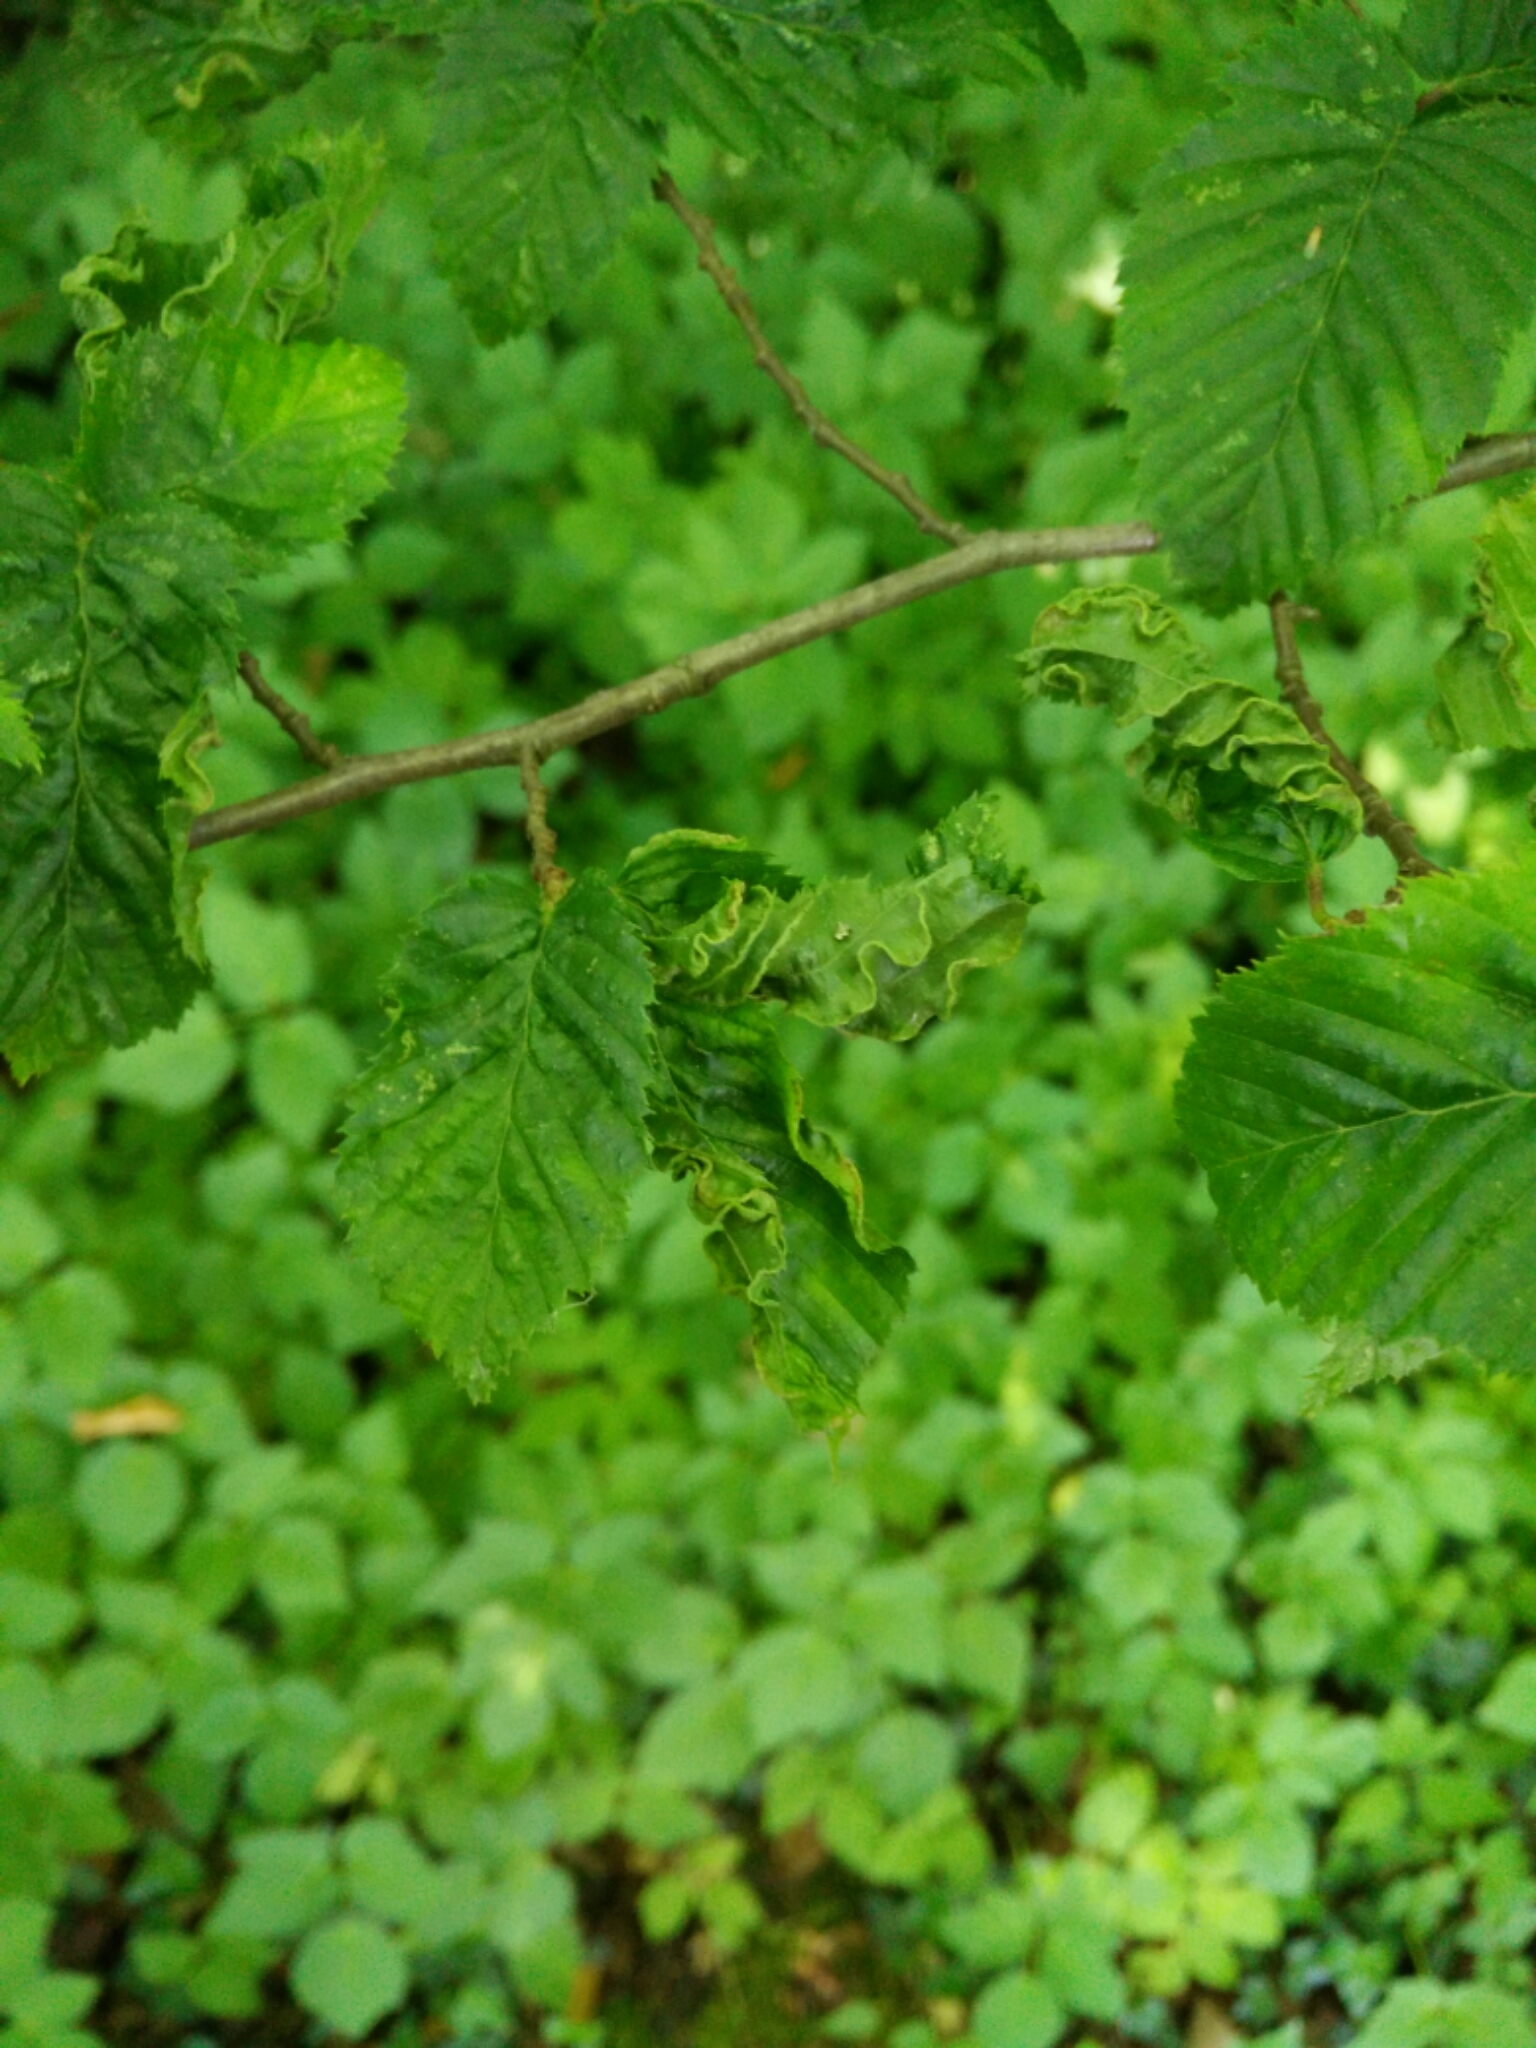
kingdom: Animalia
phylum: Arthropoda
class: Arachnida
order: Trombidiformes
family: Eriophyidae
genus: Aculops
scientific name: Aculops macrotrichus
